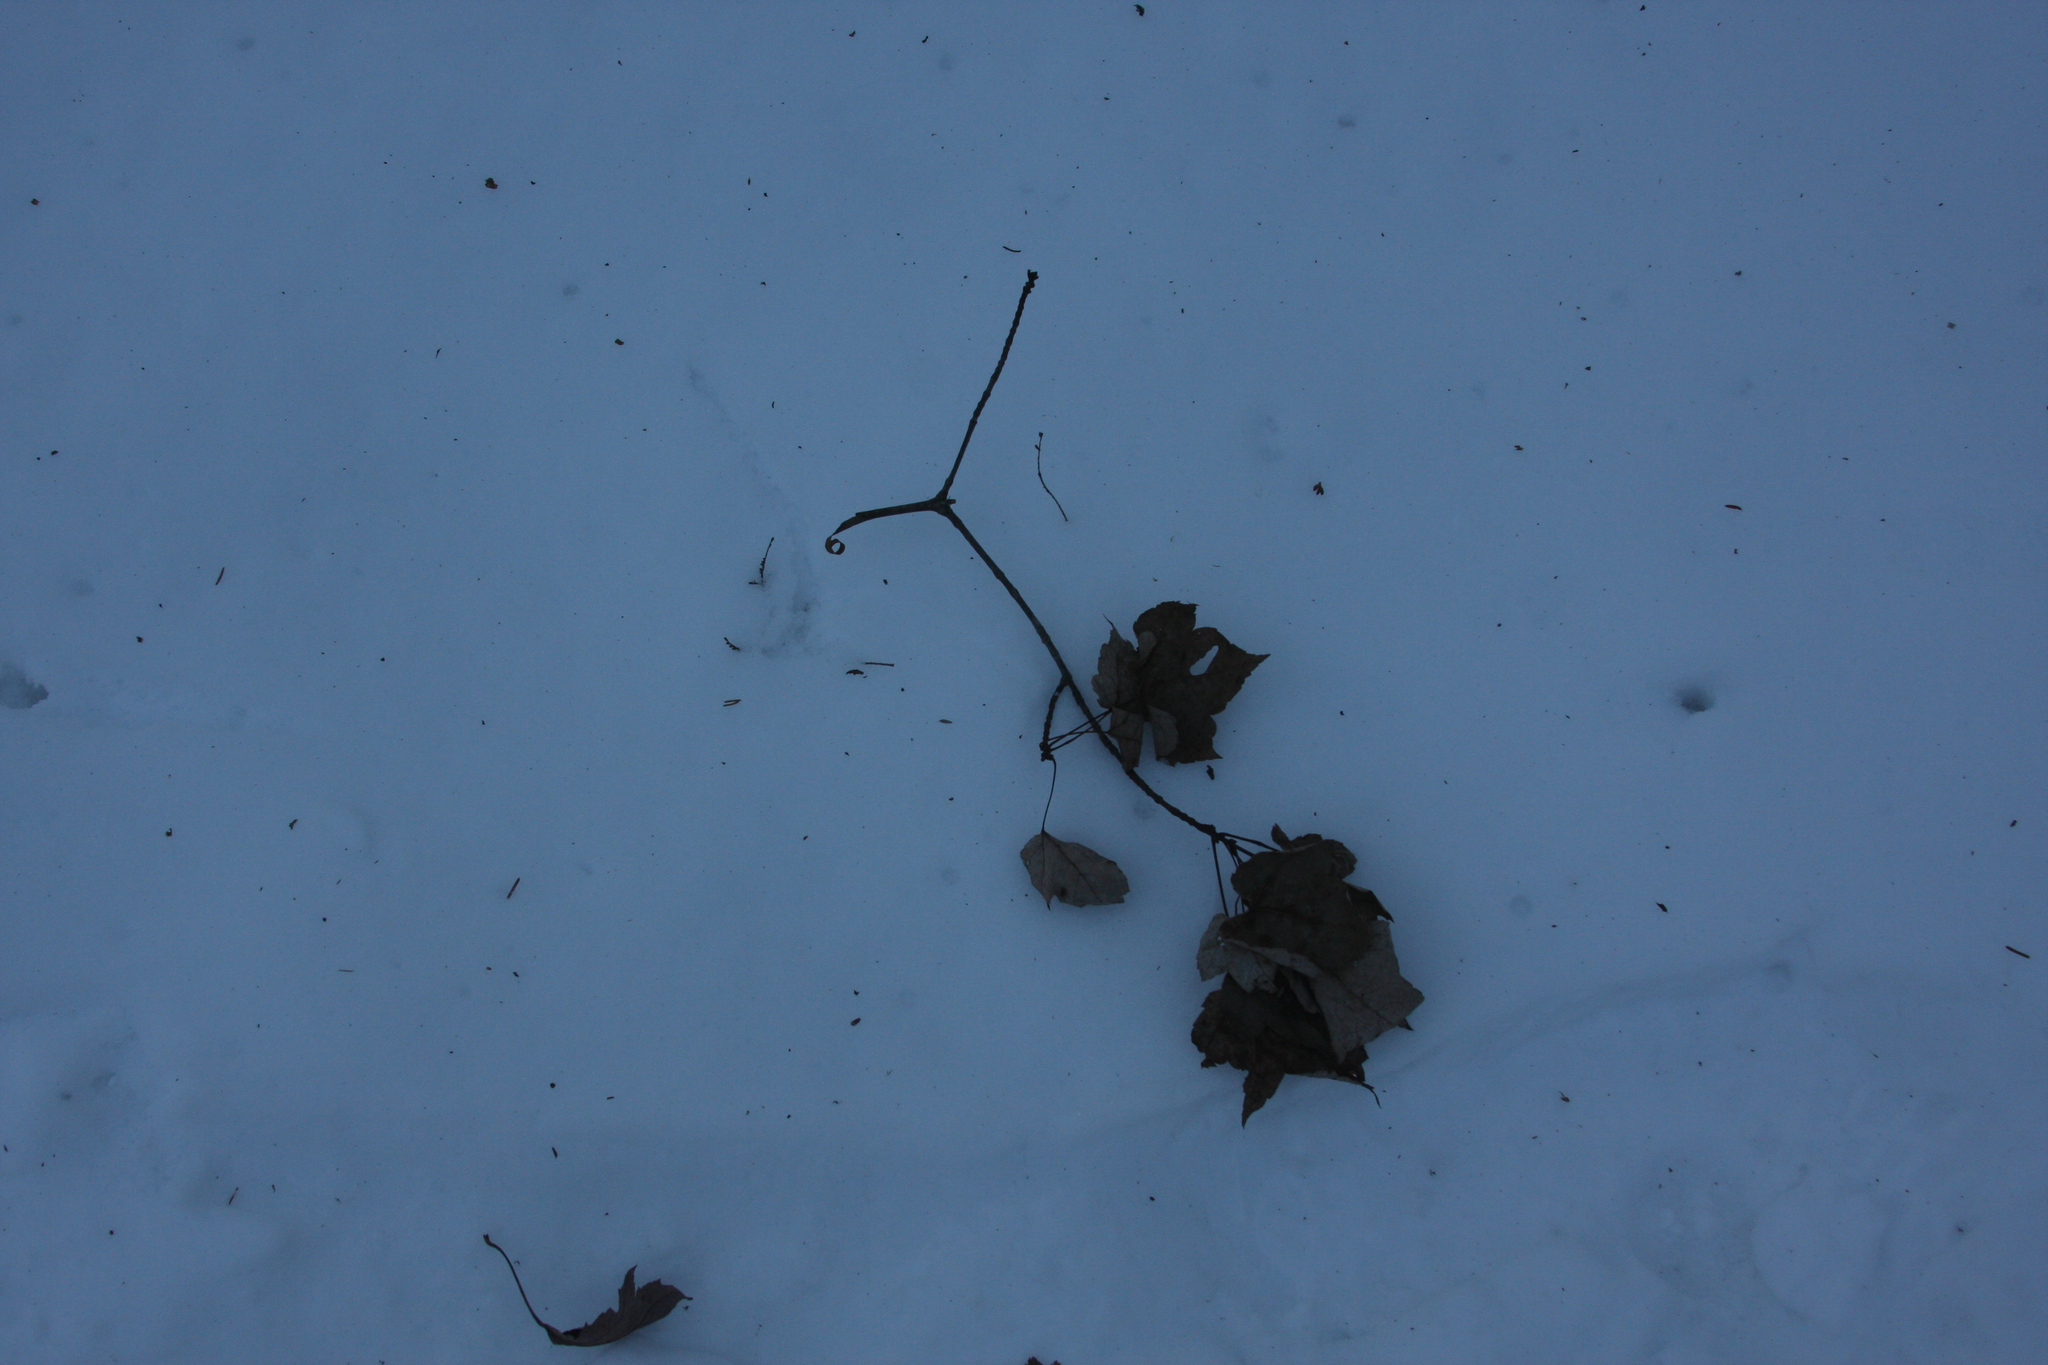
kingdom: Plantae
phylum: Tracheophyta
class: Magnoliopsida
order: Sapindales
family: Sapindaceae
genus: Acer
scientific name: Acer rubrum
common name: Red maple
